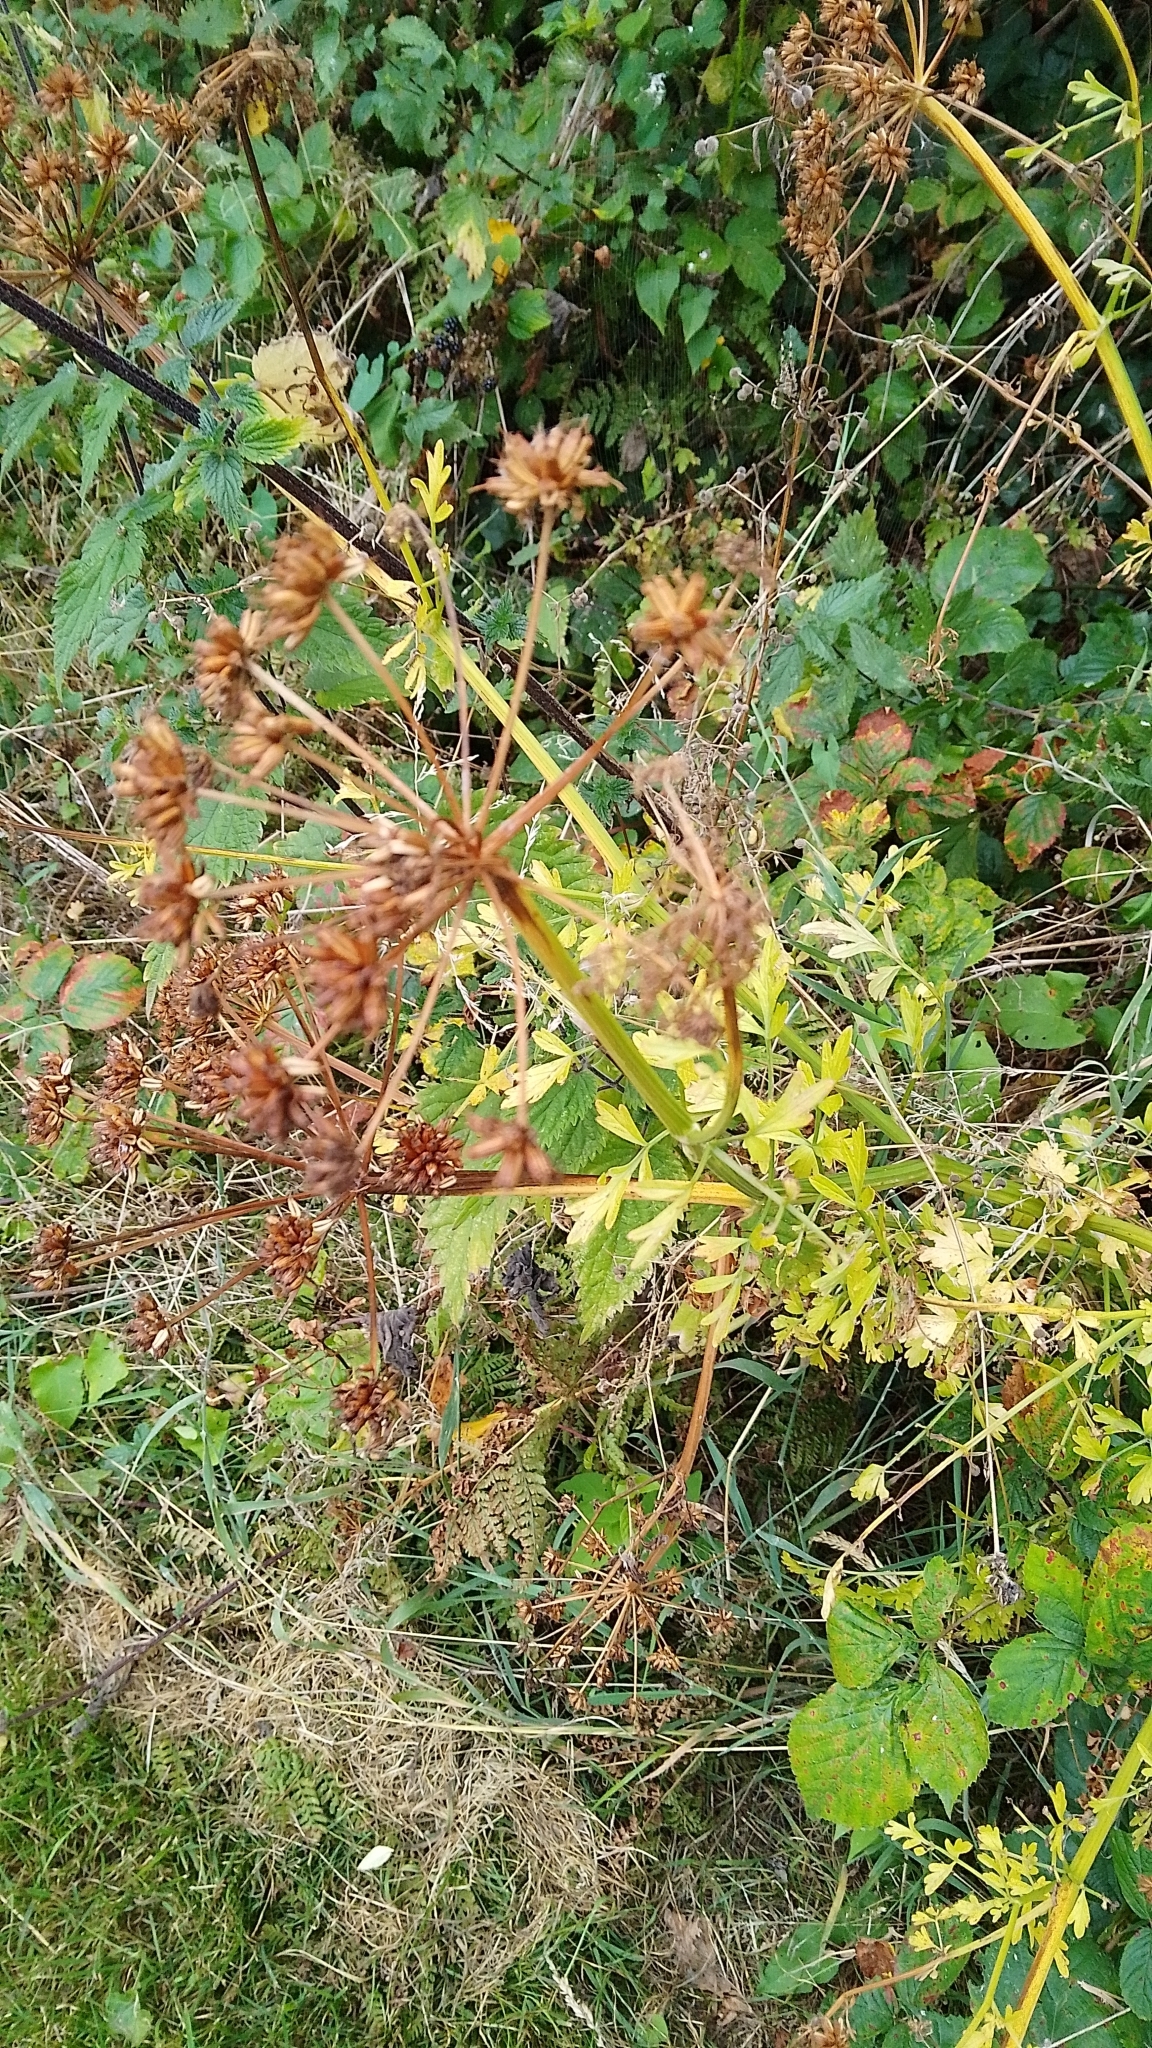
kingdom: Plantae
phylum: Tracheophyta
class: Magnoliopsida
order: Apiales
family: Apiaceae
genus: Oenanthe
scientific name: Oenanthe crocata
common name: Hemlock water-dropwort
